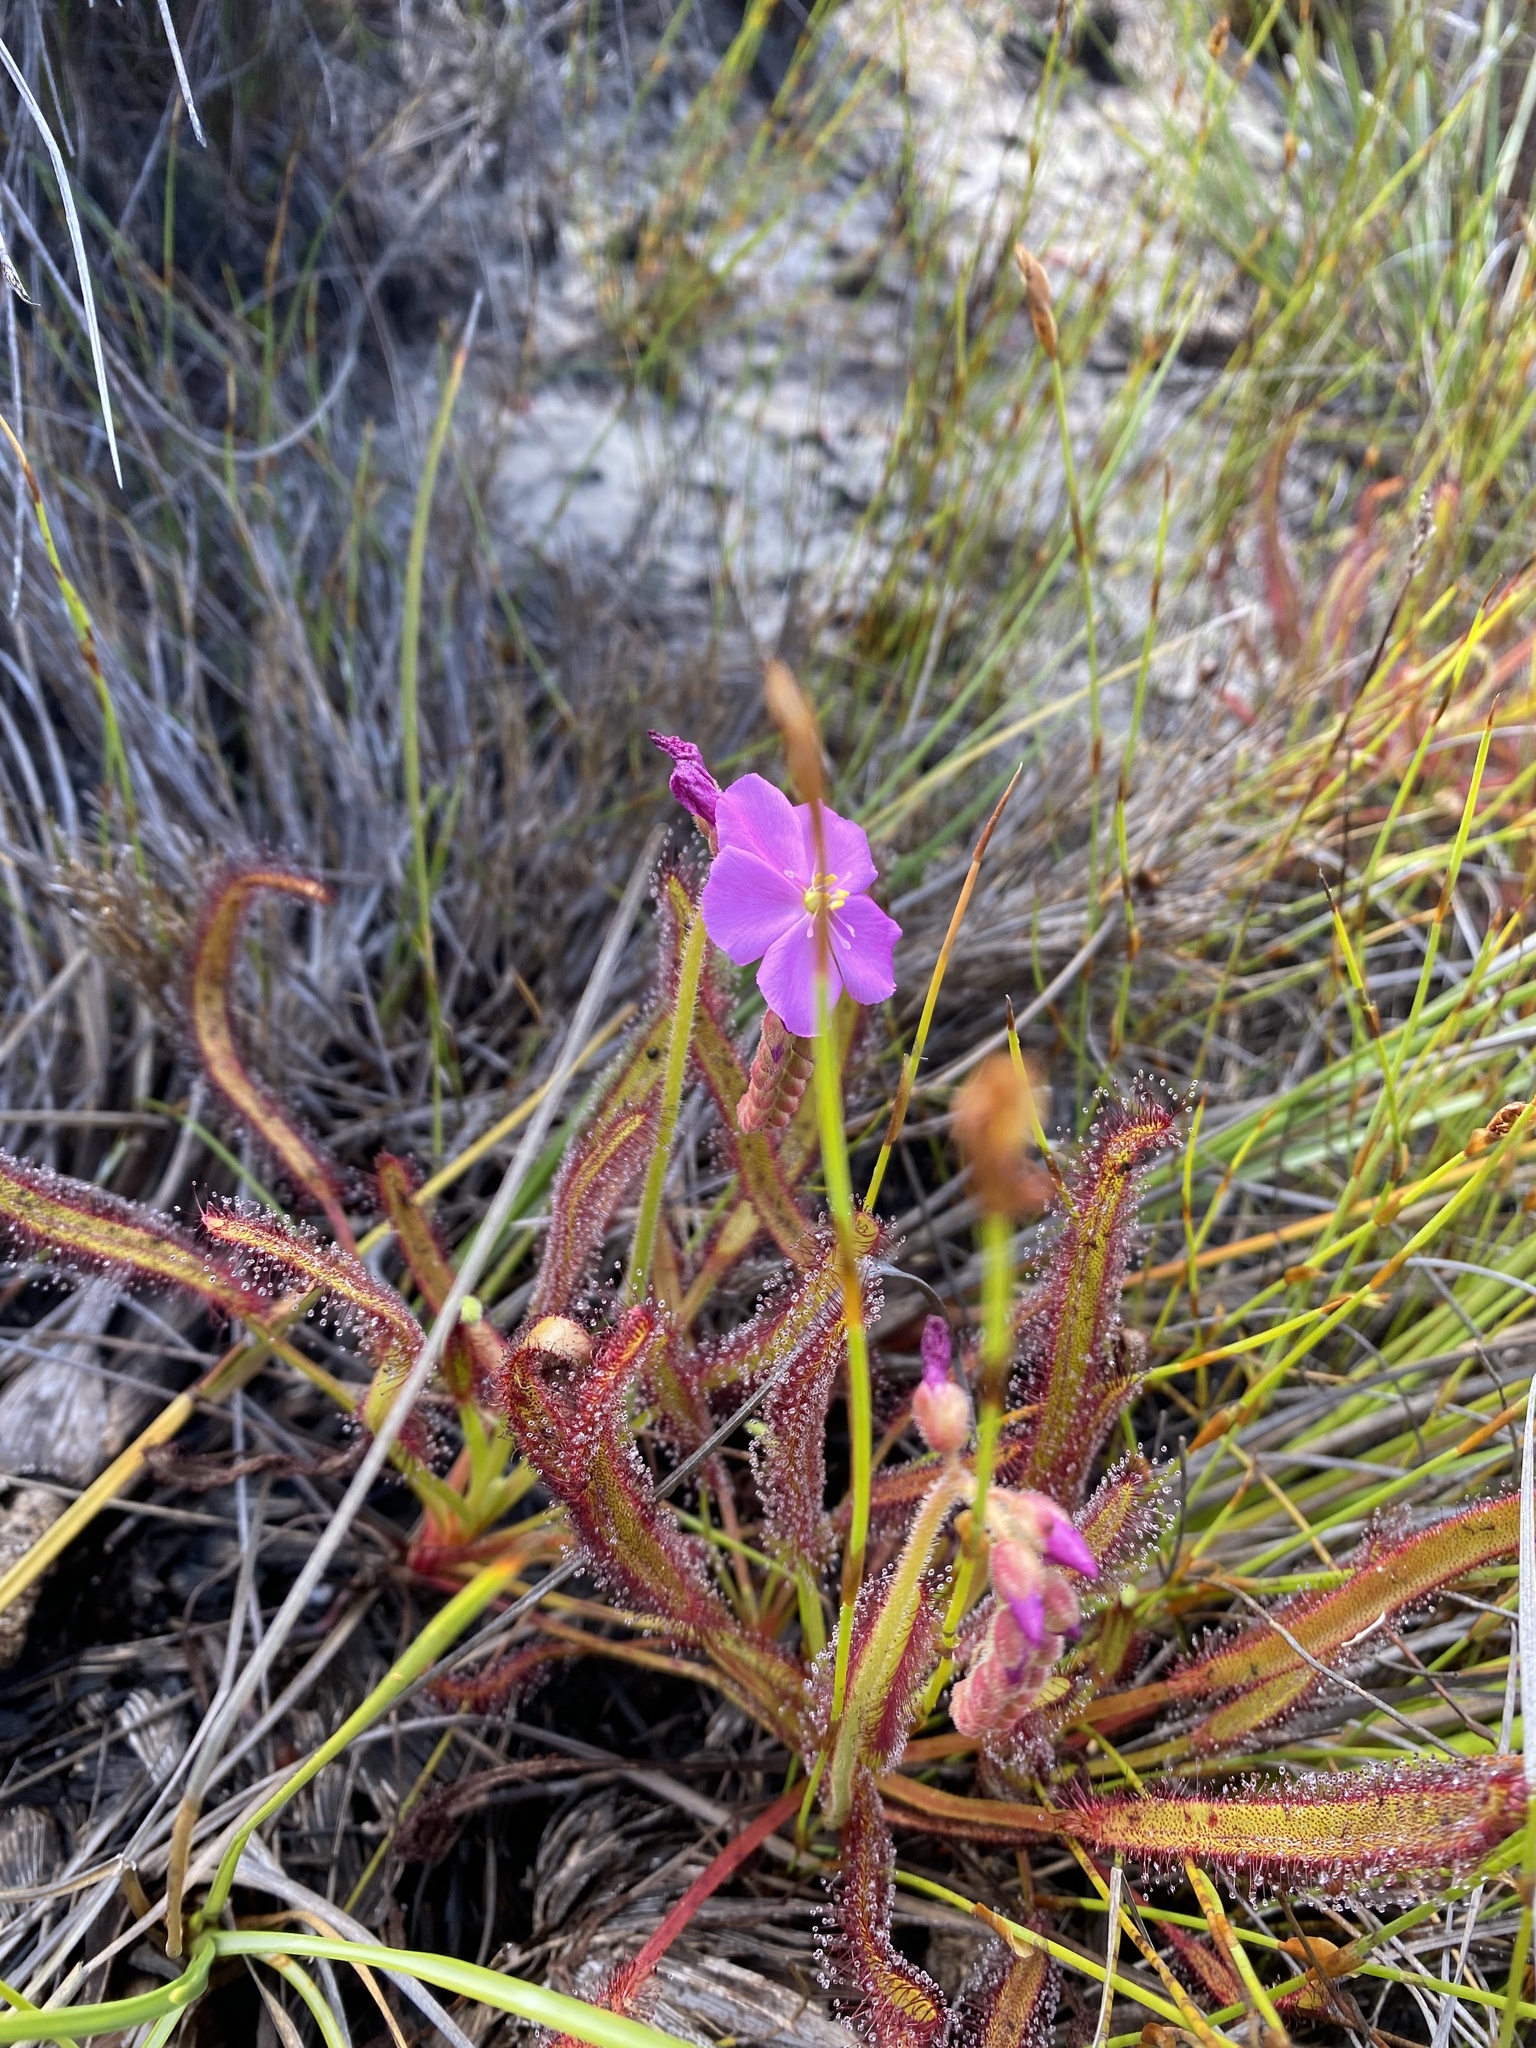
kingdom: Plantae
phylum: Tracheophyta
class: Magnoliopsida
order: Caryophyllales
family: Droseraceae
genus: Drosera
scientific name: Drosera capensis
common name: Cape sundew
